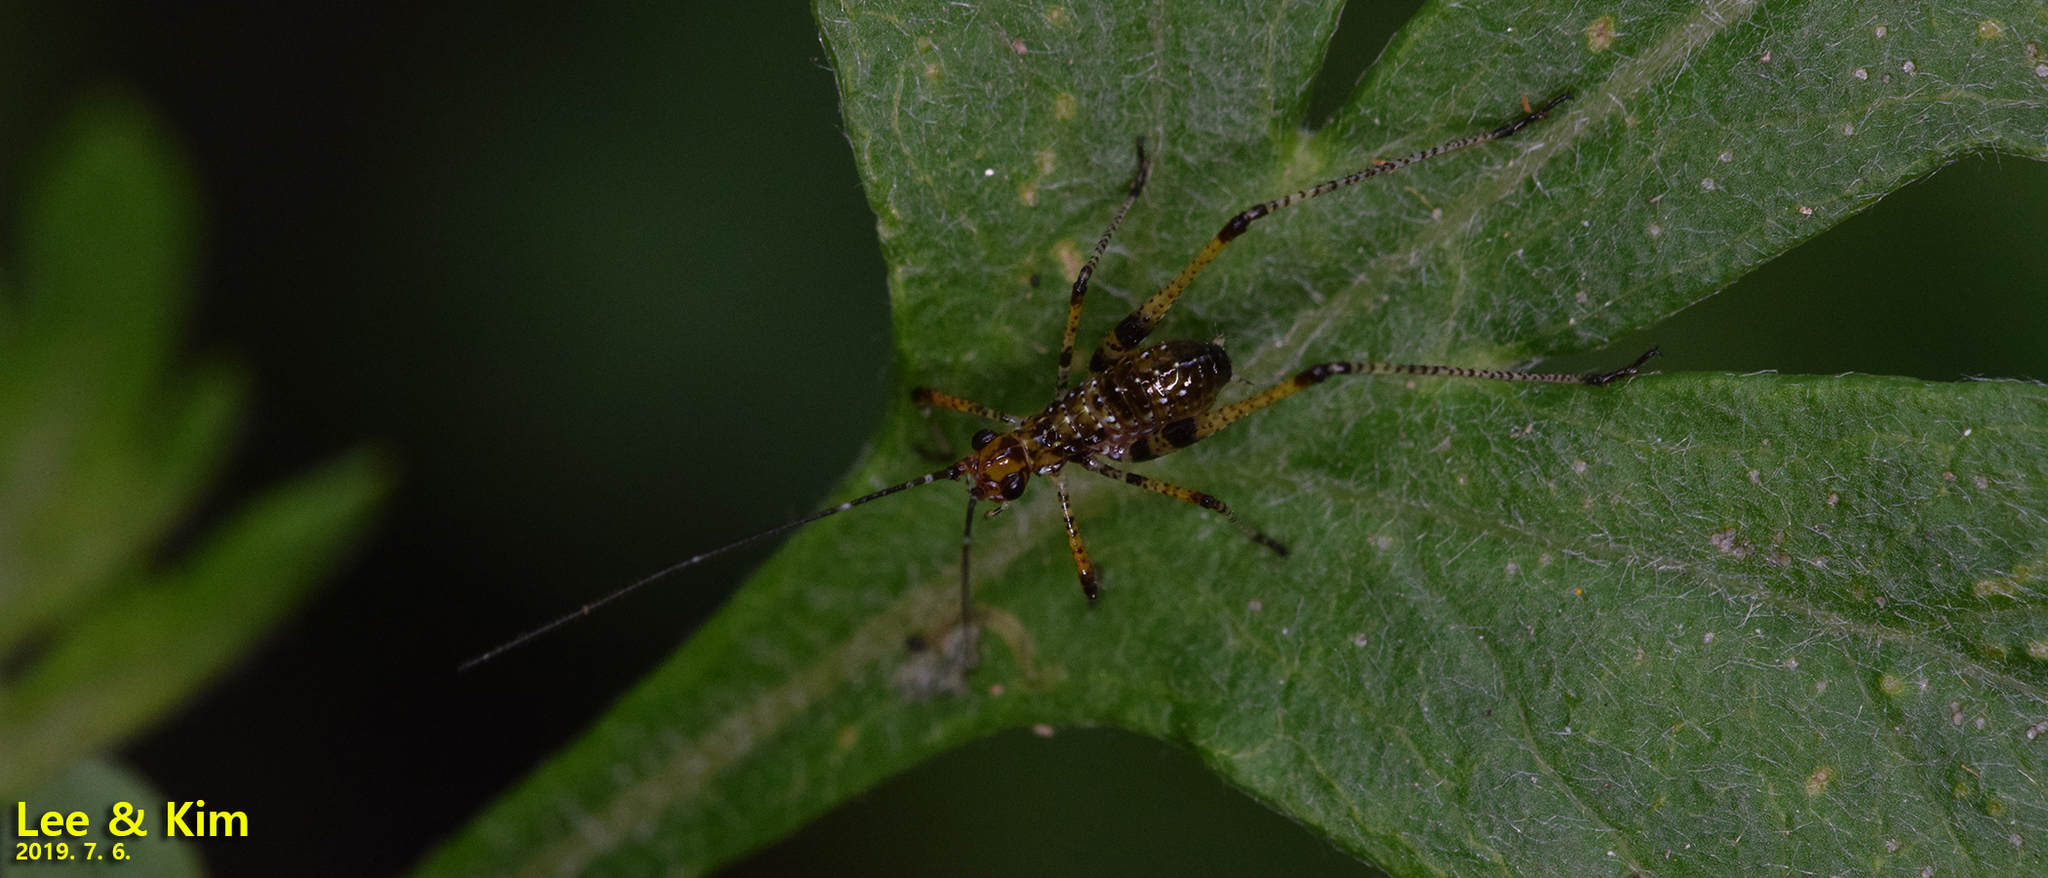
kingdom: Animalia
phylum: Arthropoda
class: Insecta
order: Orthoptera
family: Tettigoniidae
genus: Phaneroptera
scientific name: Phaneroptera nigroantennata
